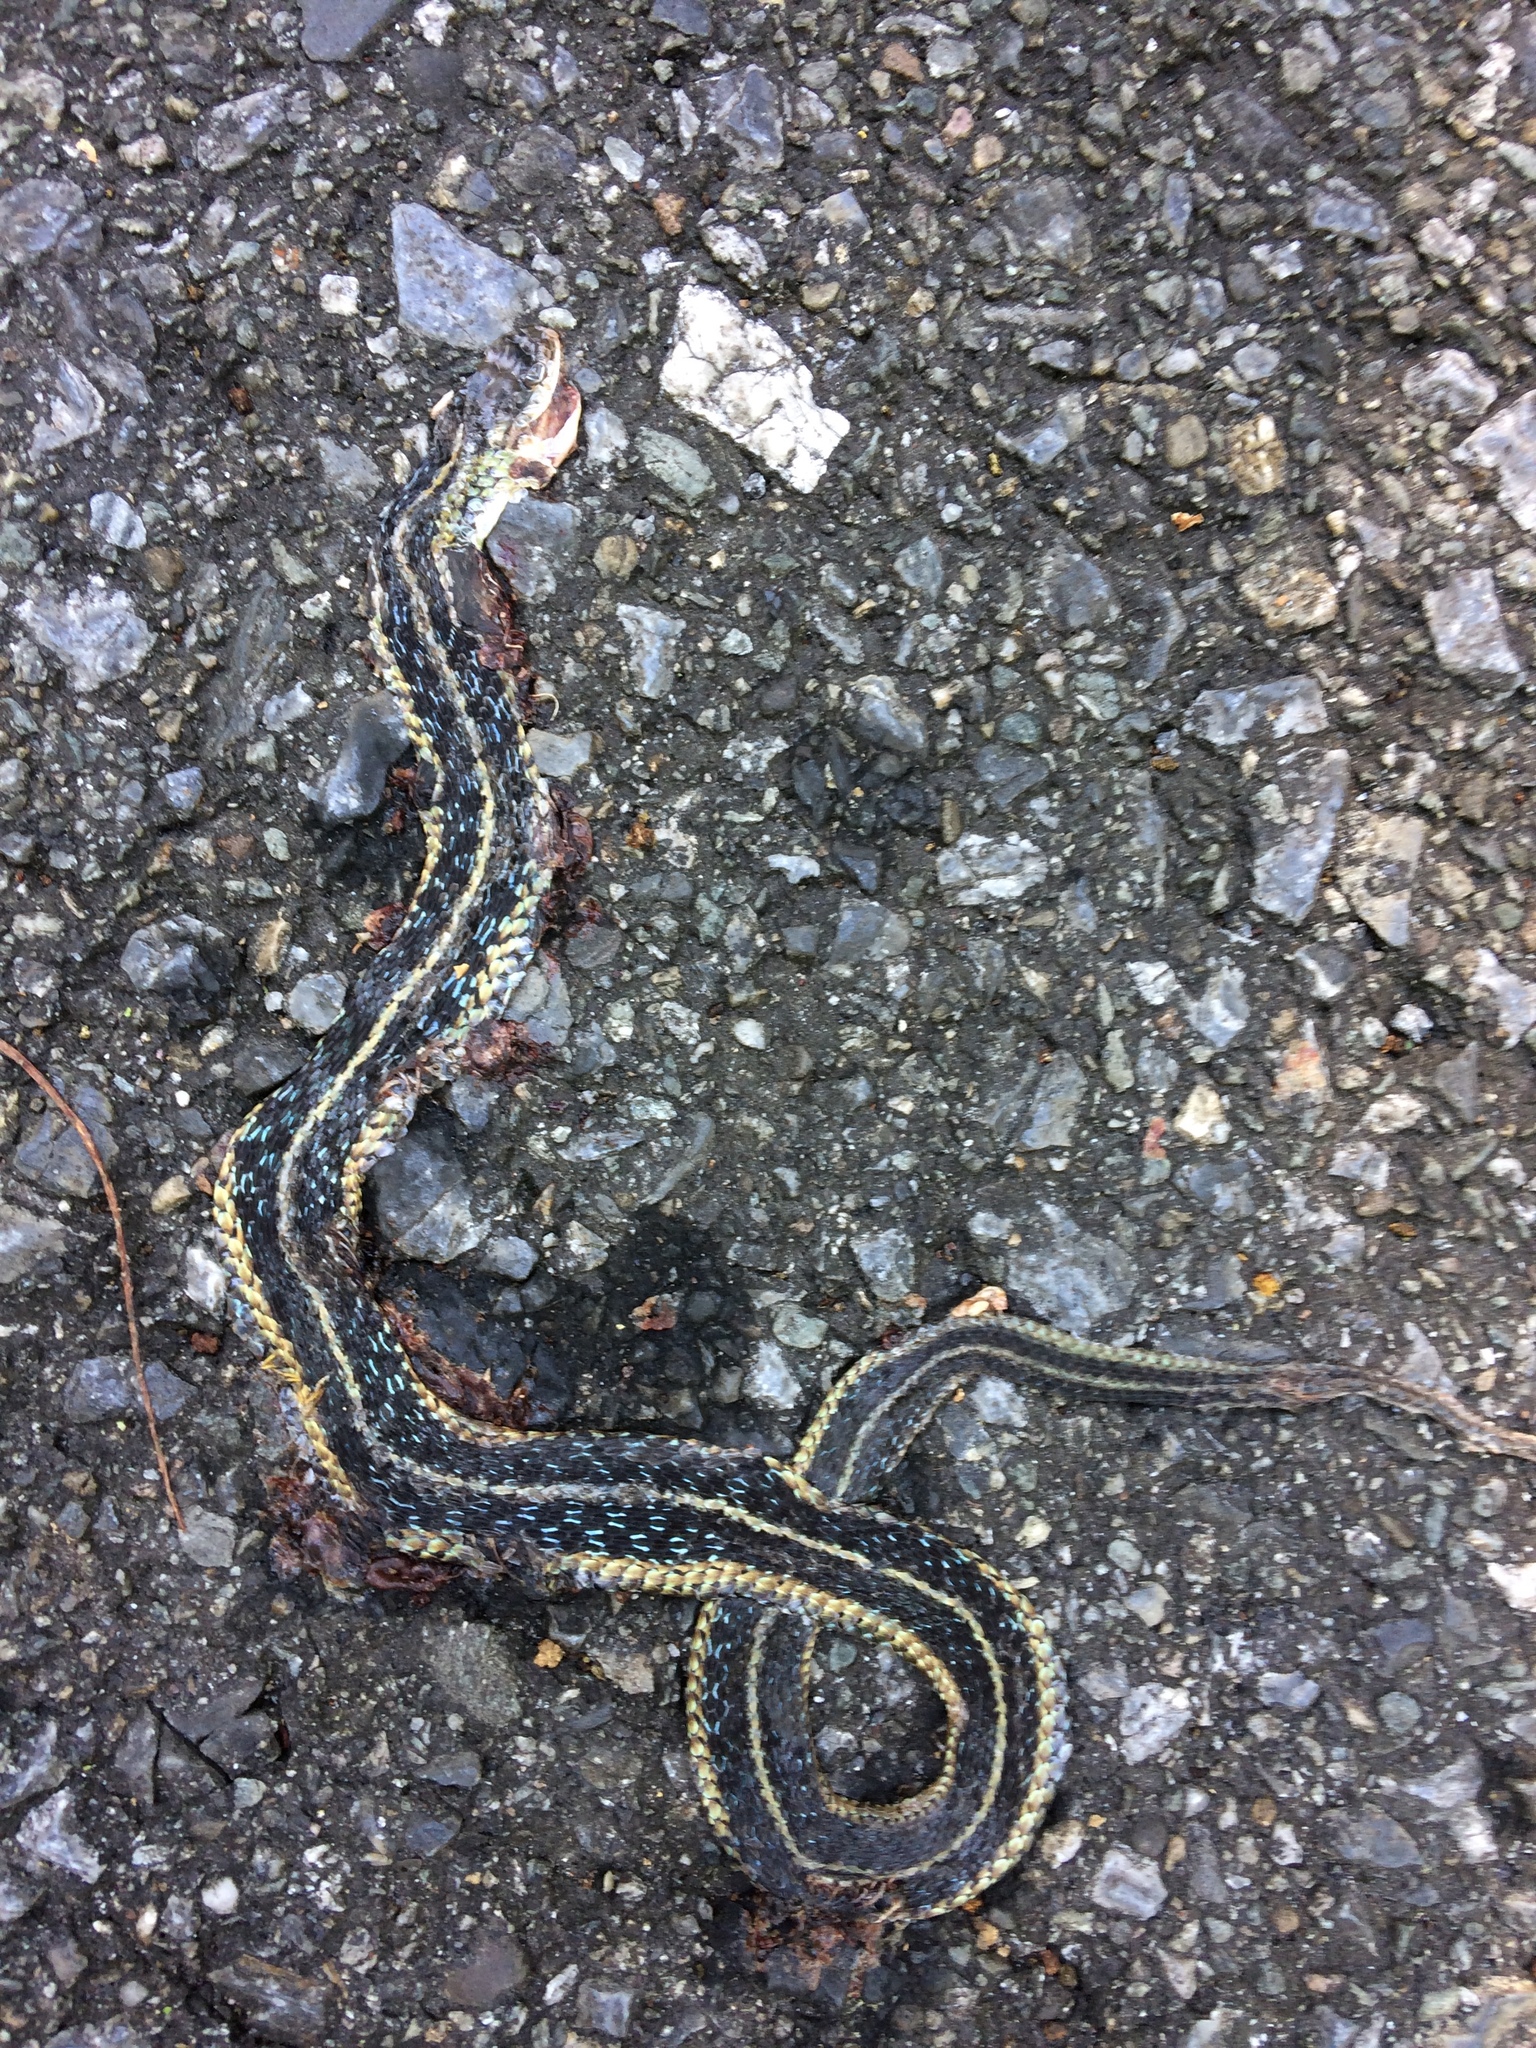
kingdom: Animalia
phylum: Chordata
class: Squamata
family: Colubridae
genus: Thamnophis
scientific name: Thamnophis sirtalis
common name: Common garter snake
